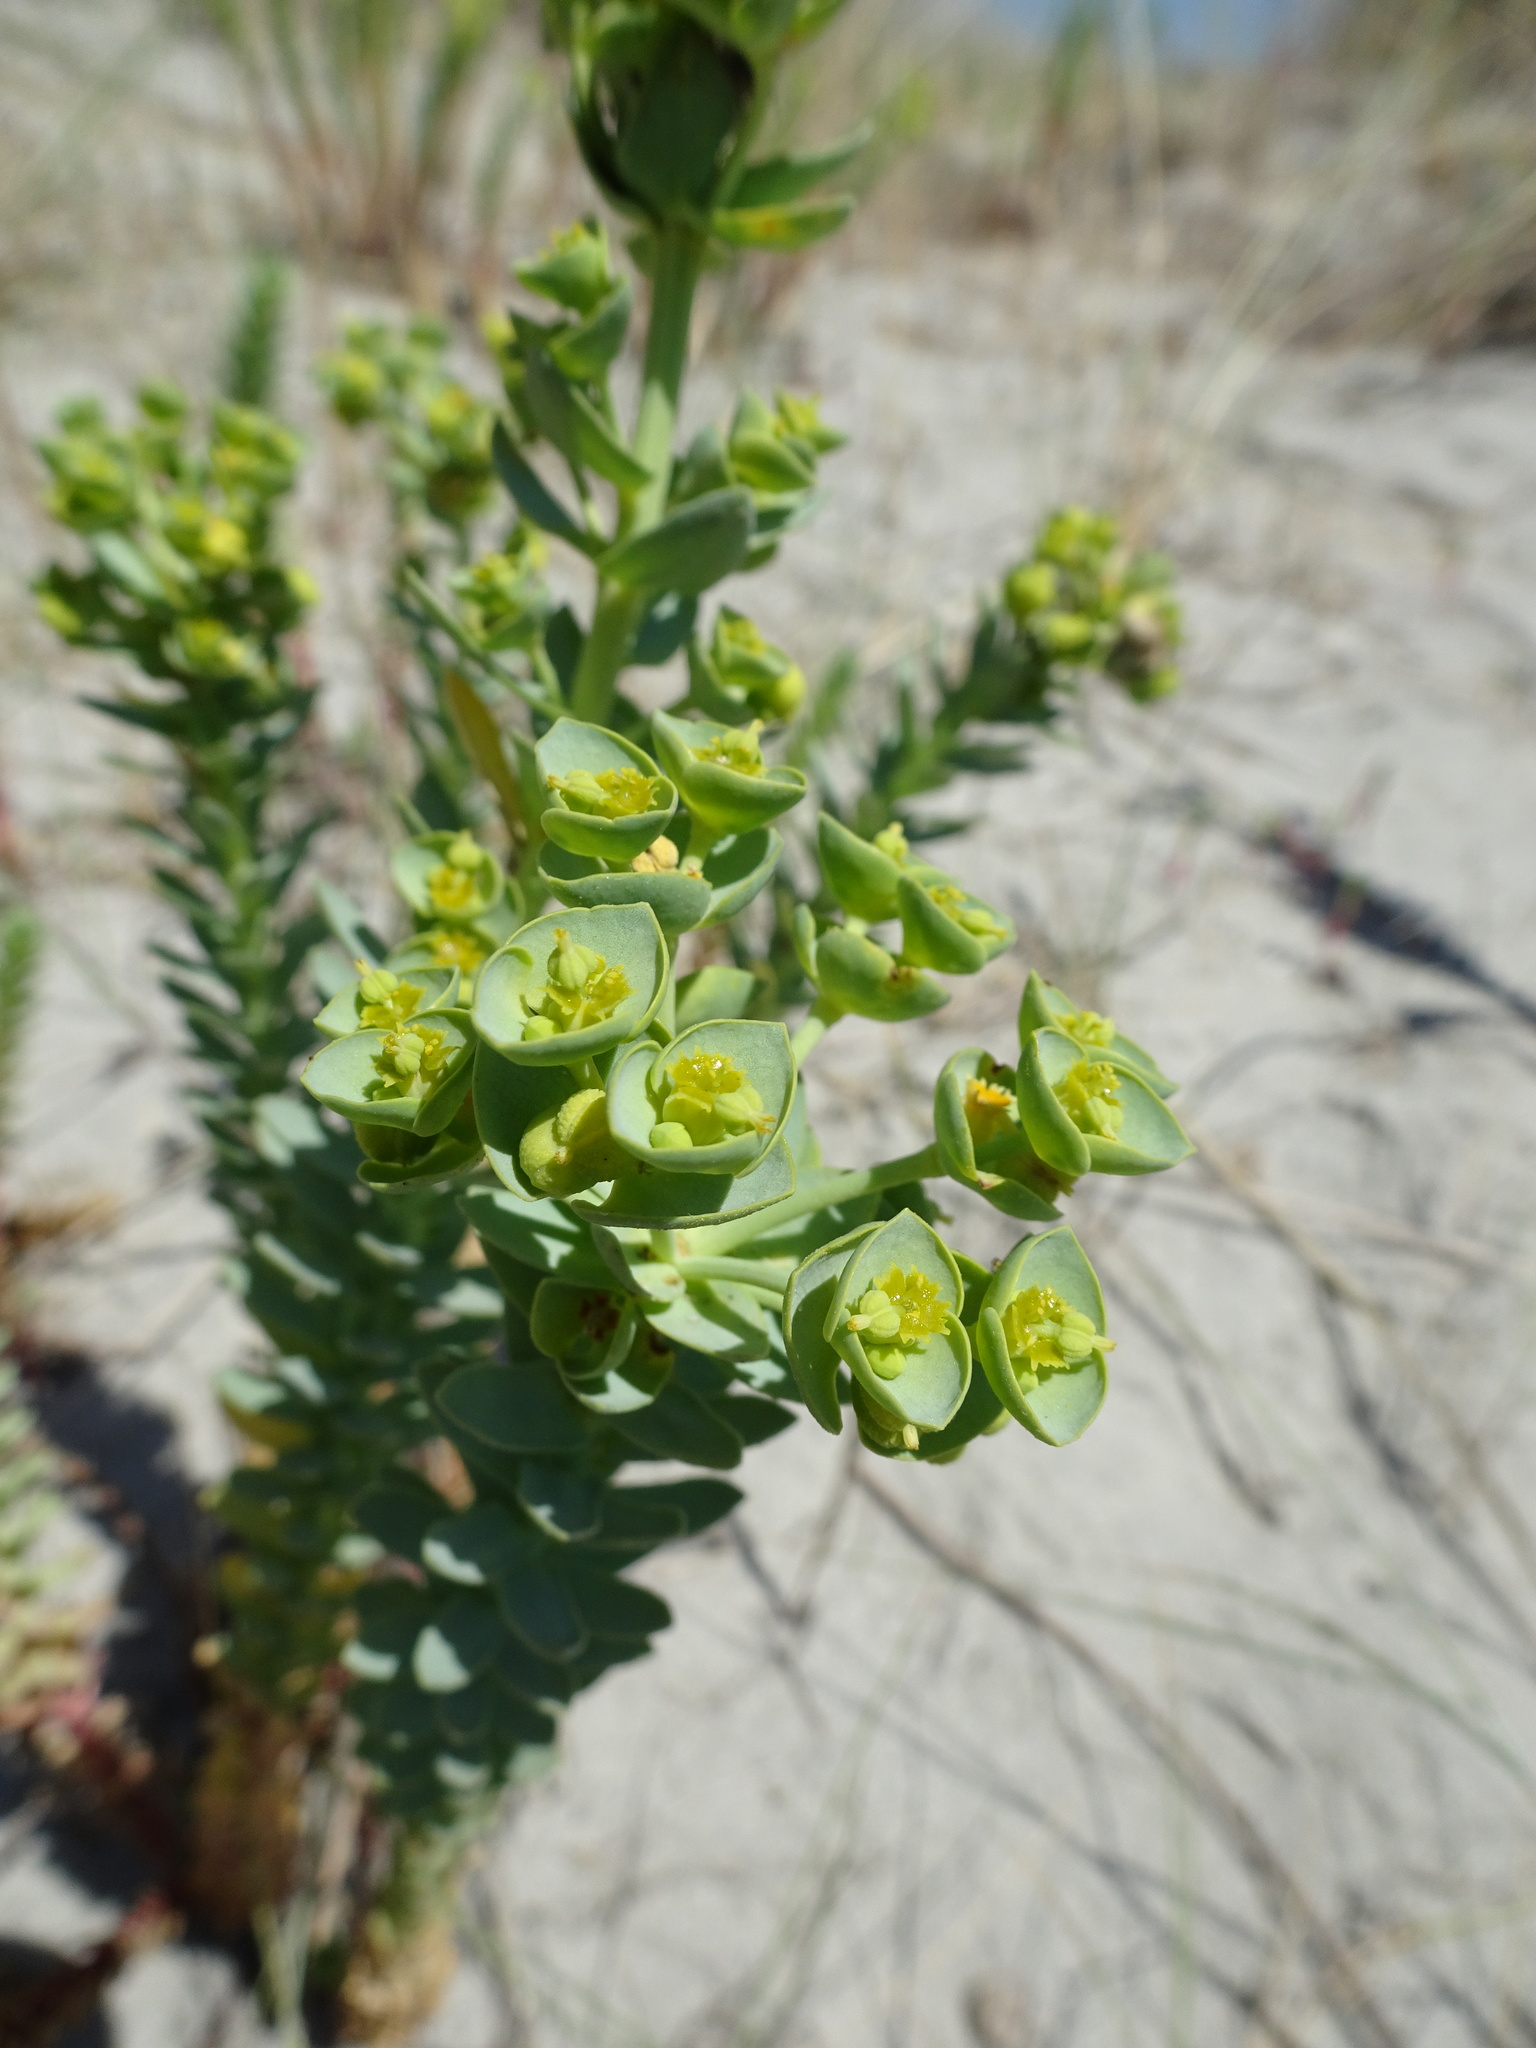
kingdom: Plantae
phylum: Tracheophyta
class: Magnoliopsida
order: Malpighiales
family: Euphorbiaceae
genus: Euphorbia
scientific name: Euphorbia paralias
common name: Sea spurge
